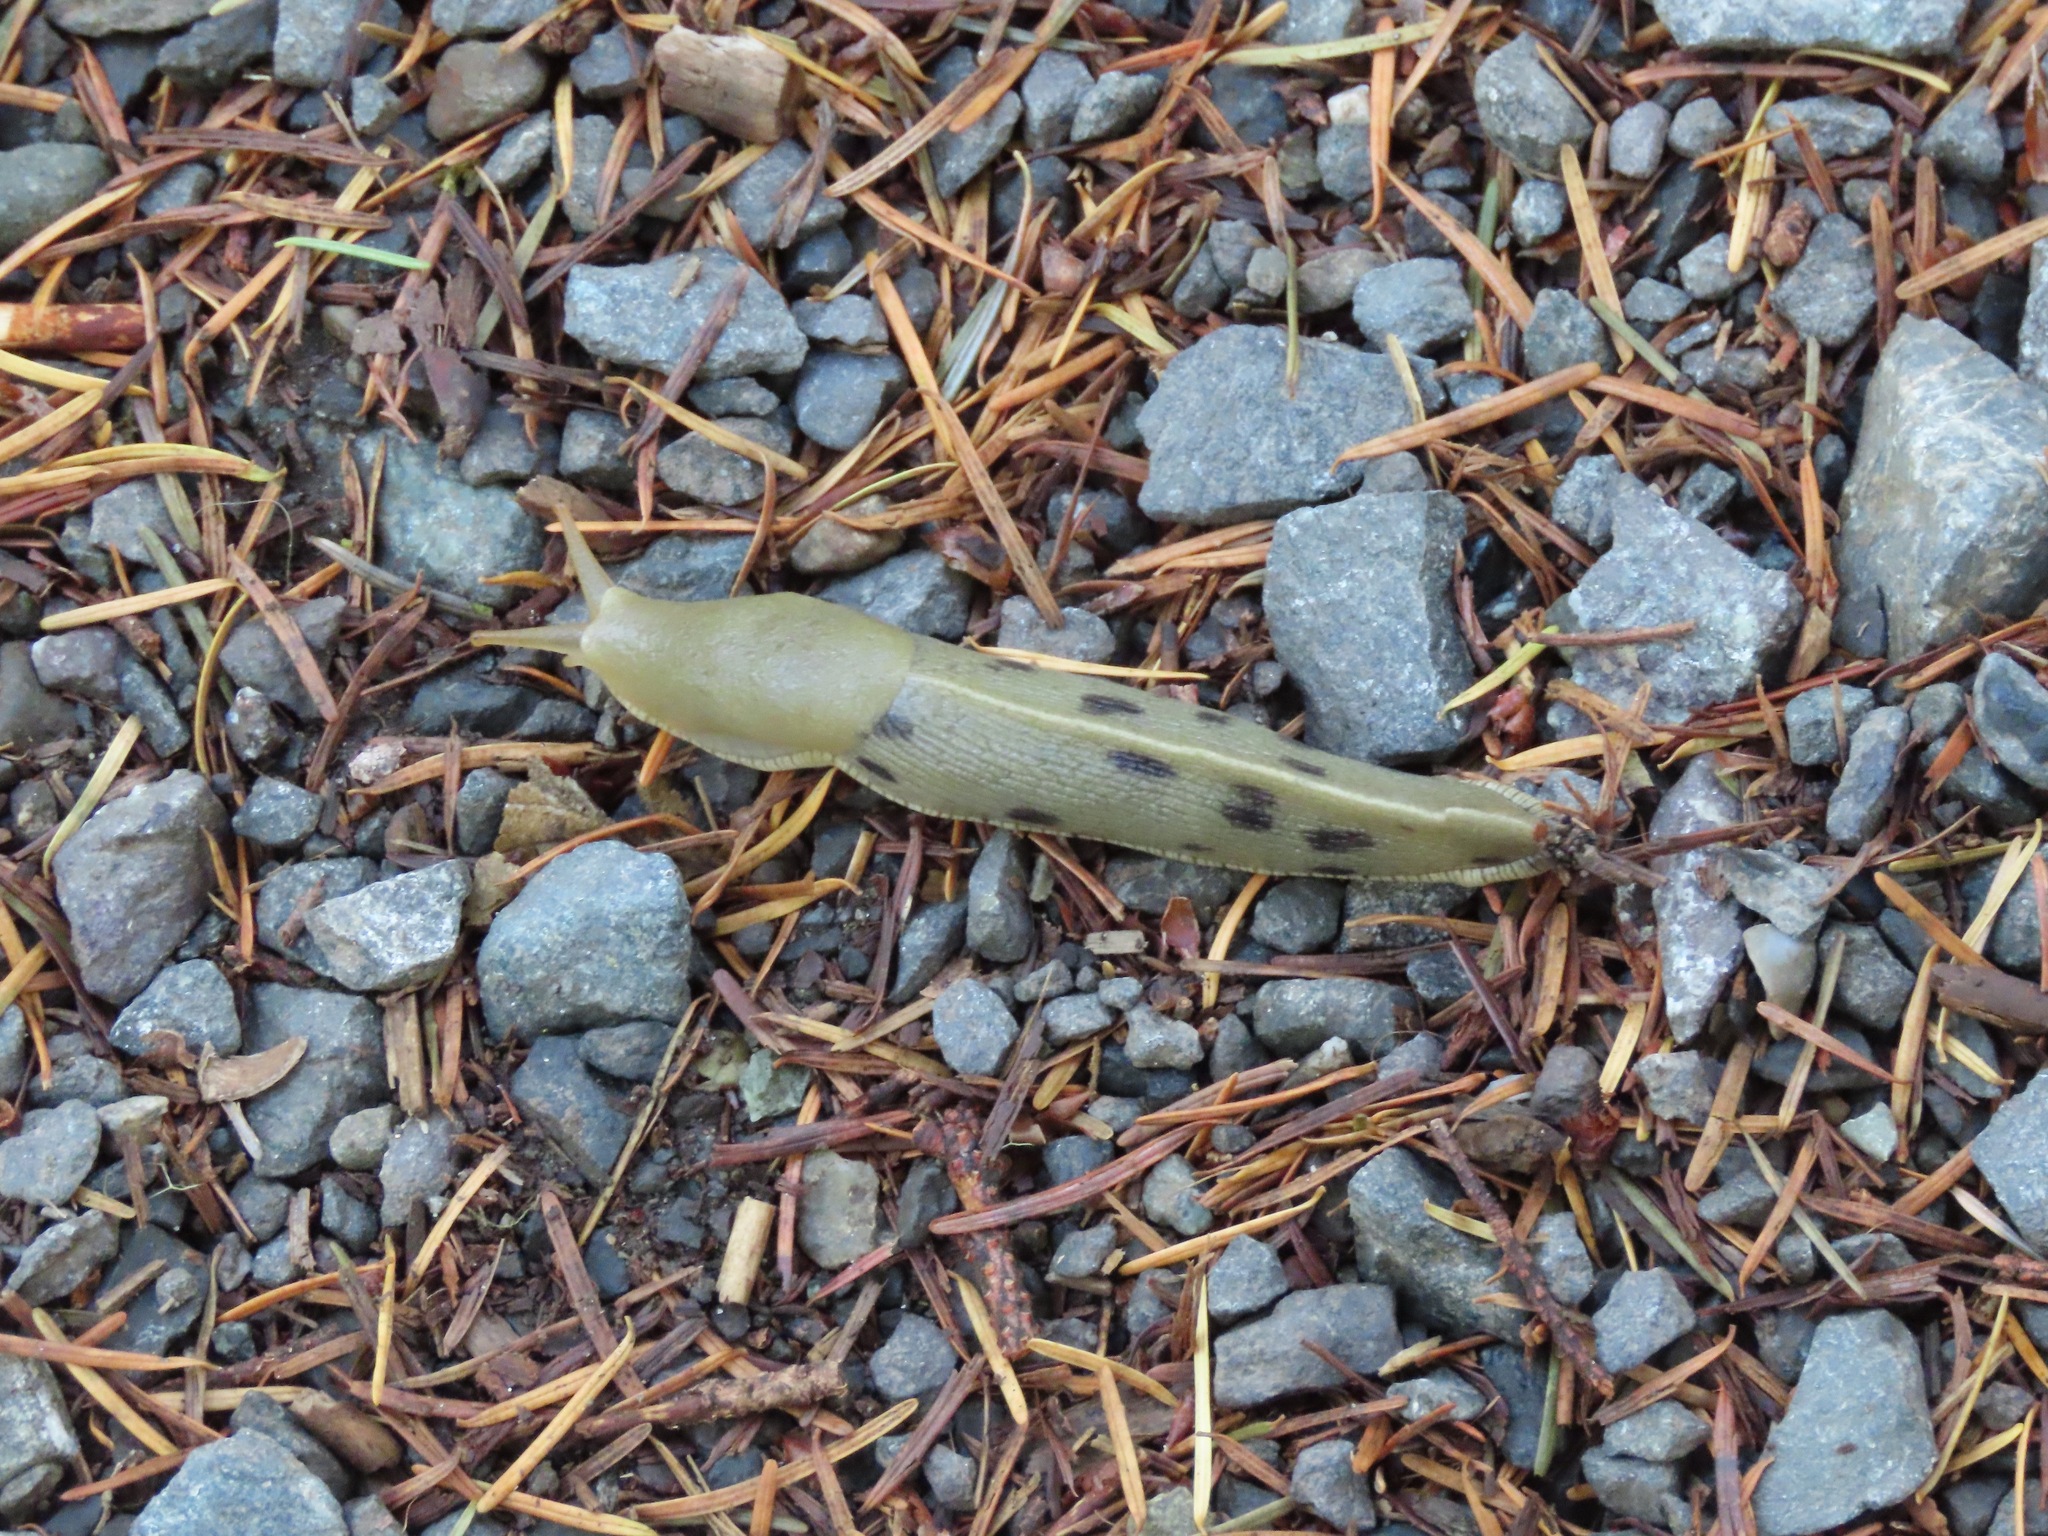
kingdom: Animalia
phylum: Mollusca
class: Gastropoda
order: Stylommatophora
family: Ariolimacidae
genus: Ariolimax
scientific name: Ariolimax columbianus
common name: Pacific banana slug
